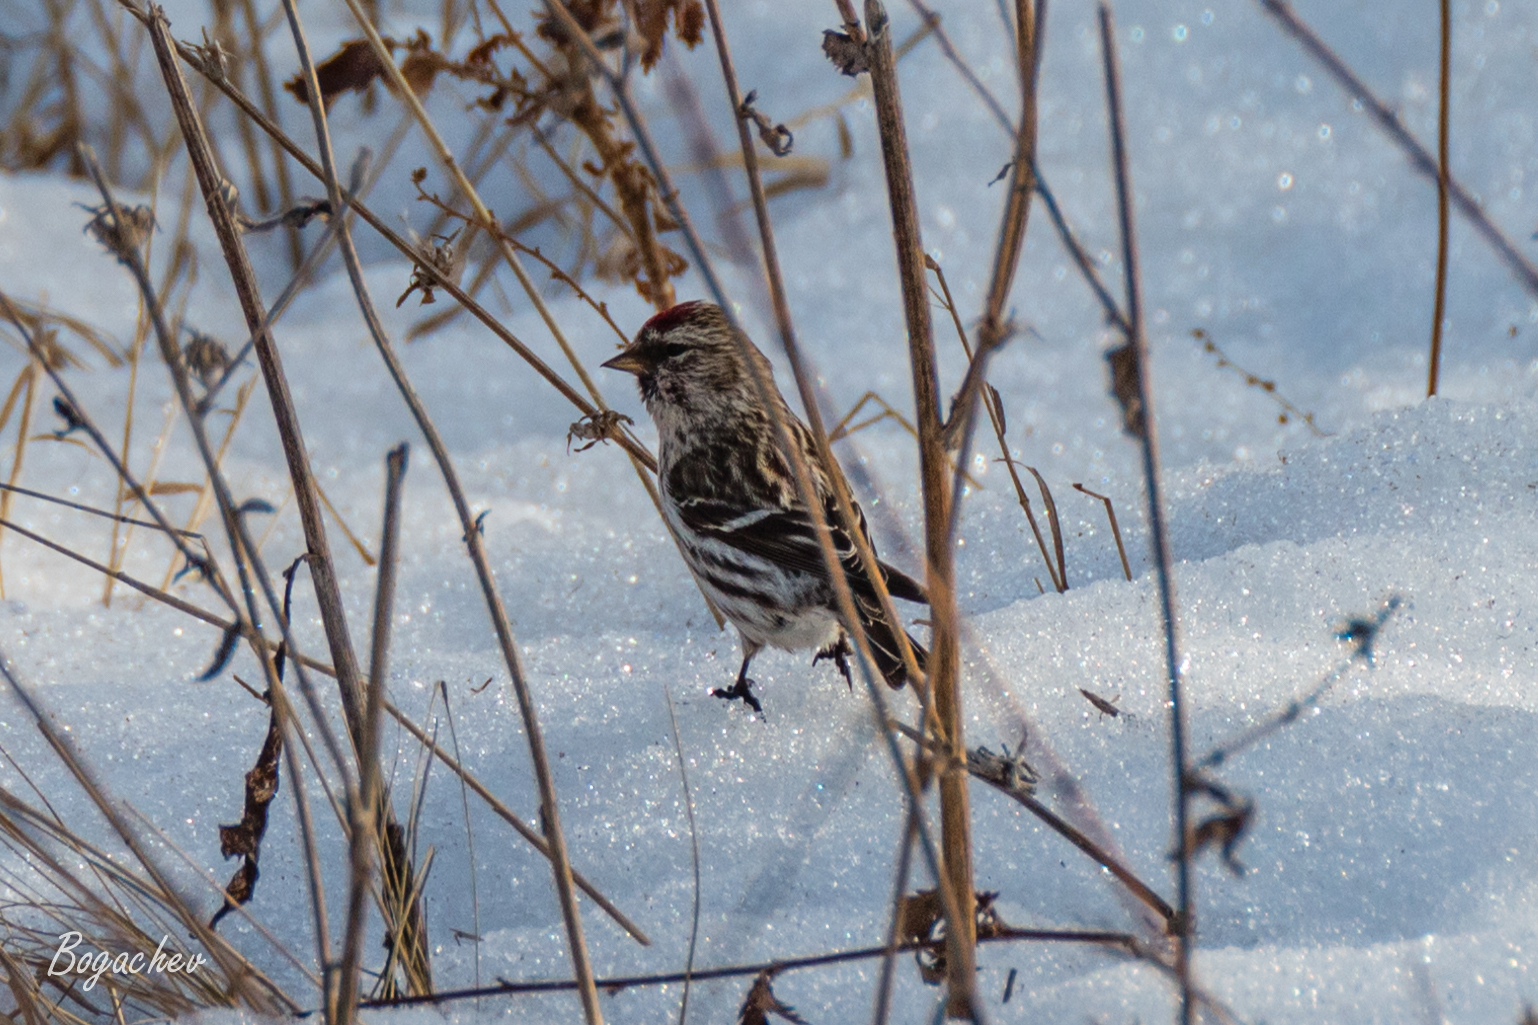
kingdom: Animalia
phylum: Chordata
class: Aves
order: Passeriformes
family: Fringillidae
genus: Acanthis
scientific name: Acanthis flammea
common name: Common redpoll
